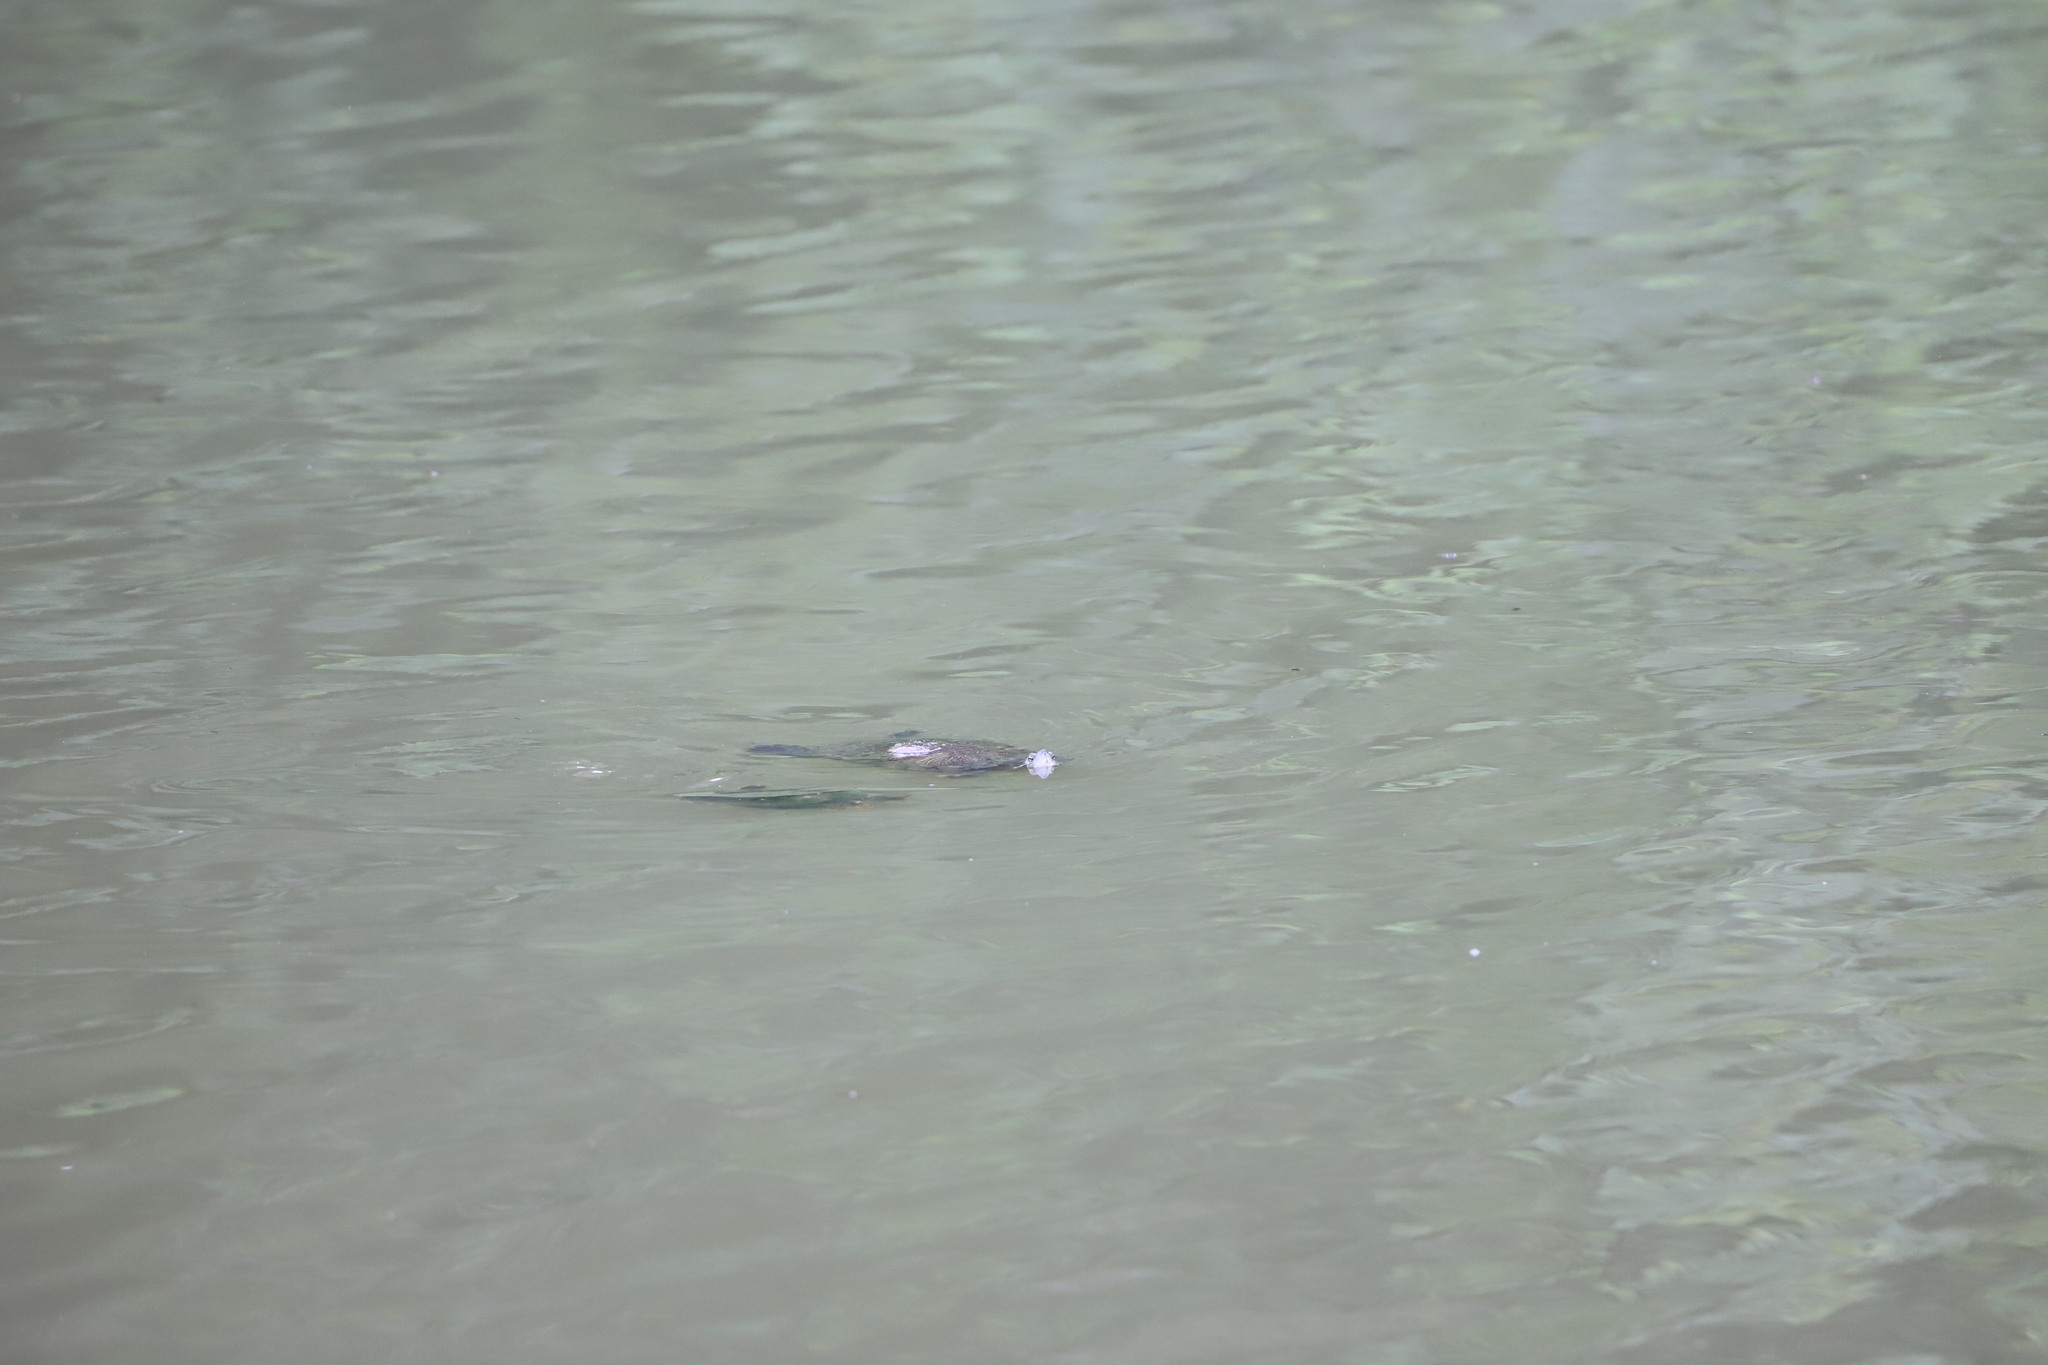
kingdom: Animalia
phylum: Chordata
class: Testudines
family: Emydidae
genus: Trachemys
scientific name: Trachemys scripta
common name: Slider
